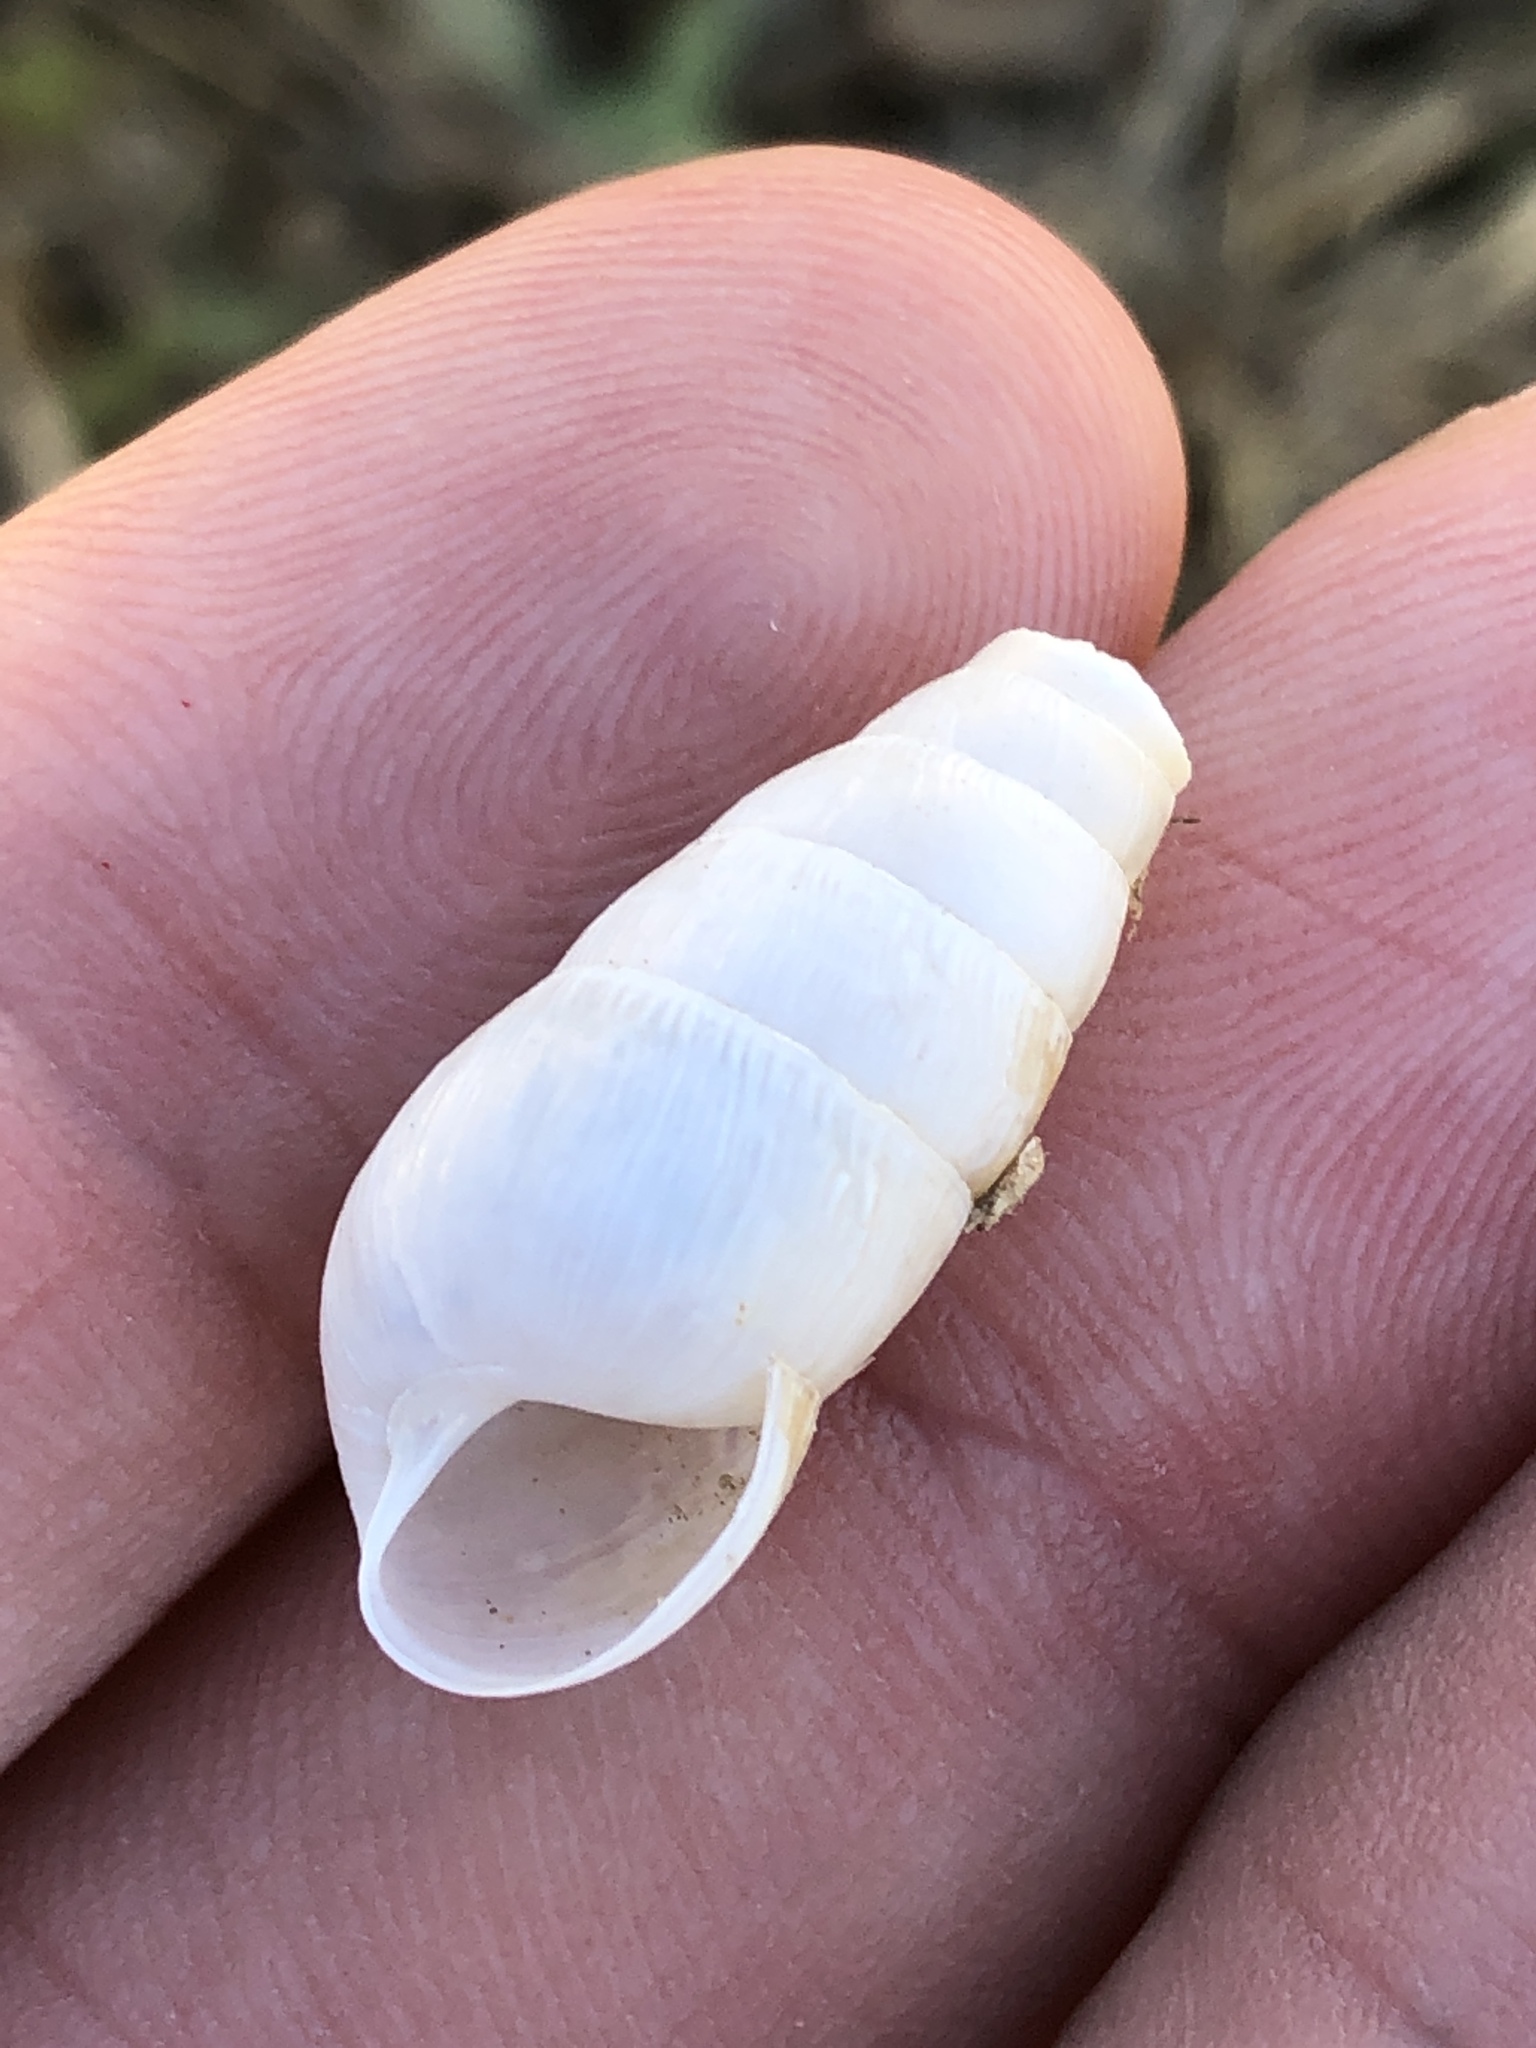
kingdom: Animalia
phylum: Mollusca
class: Gastropoda
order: Stylommatophora
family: Achatinidae
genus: Rumina
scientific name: Rumina decollata
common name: Decollate snail
